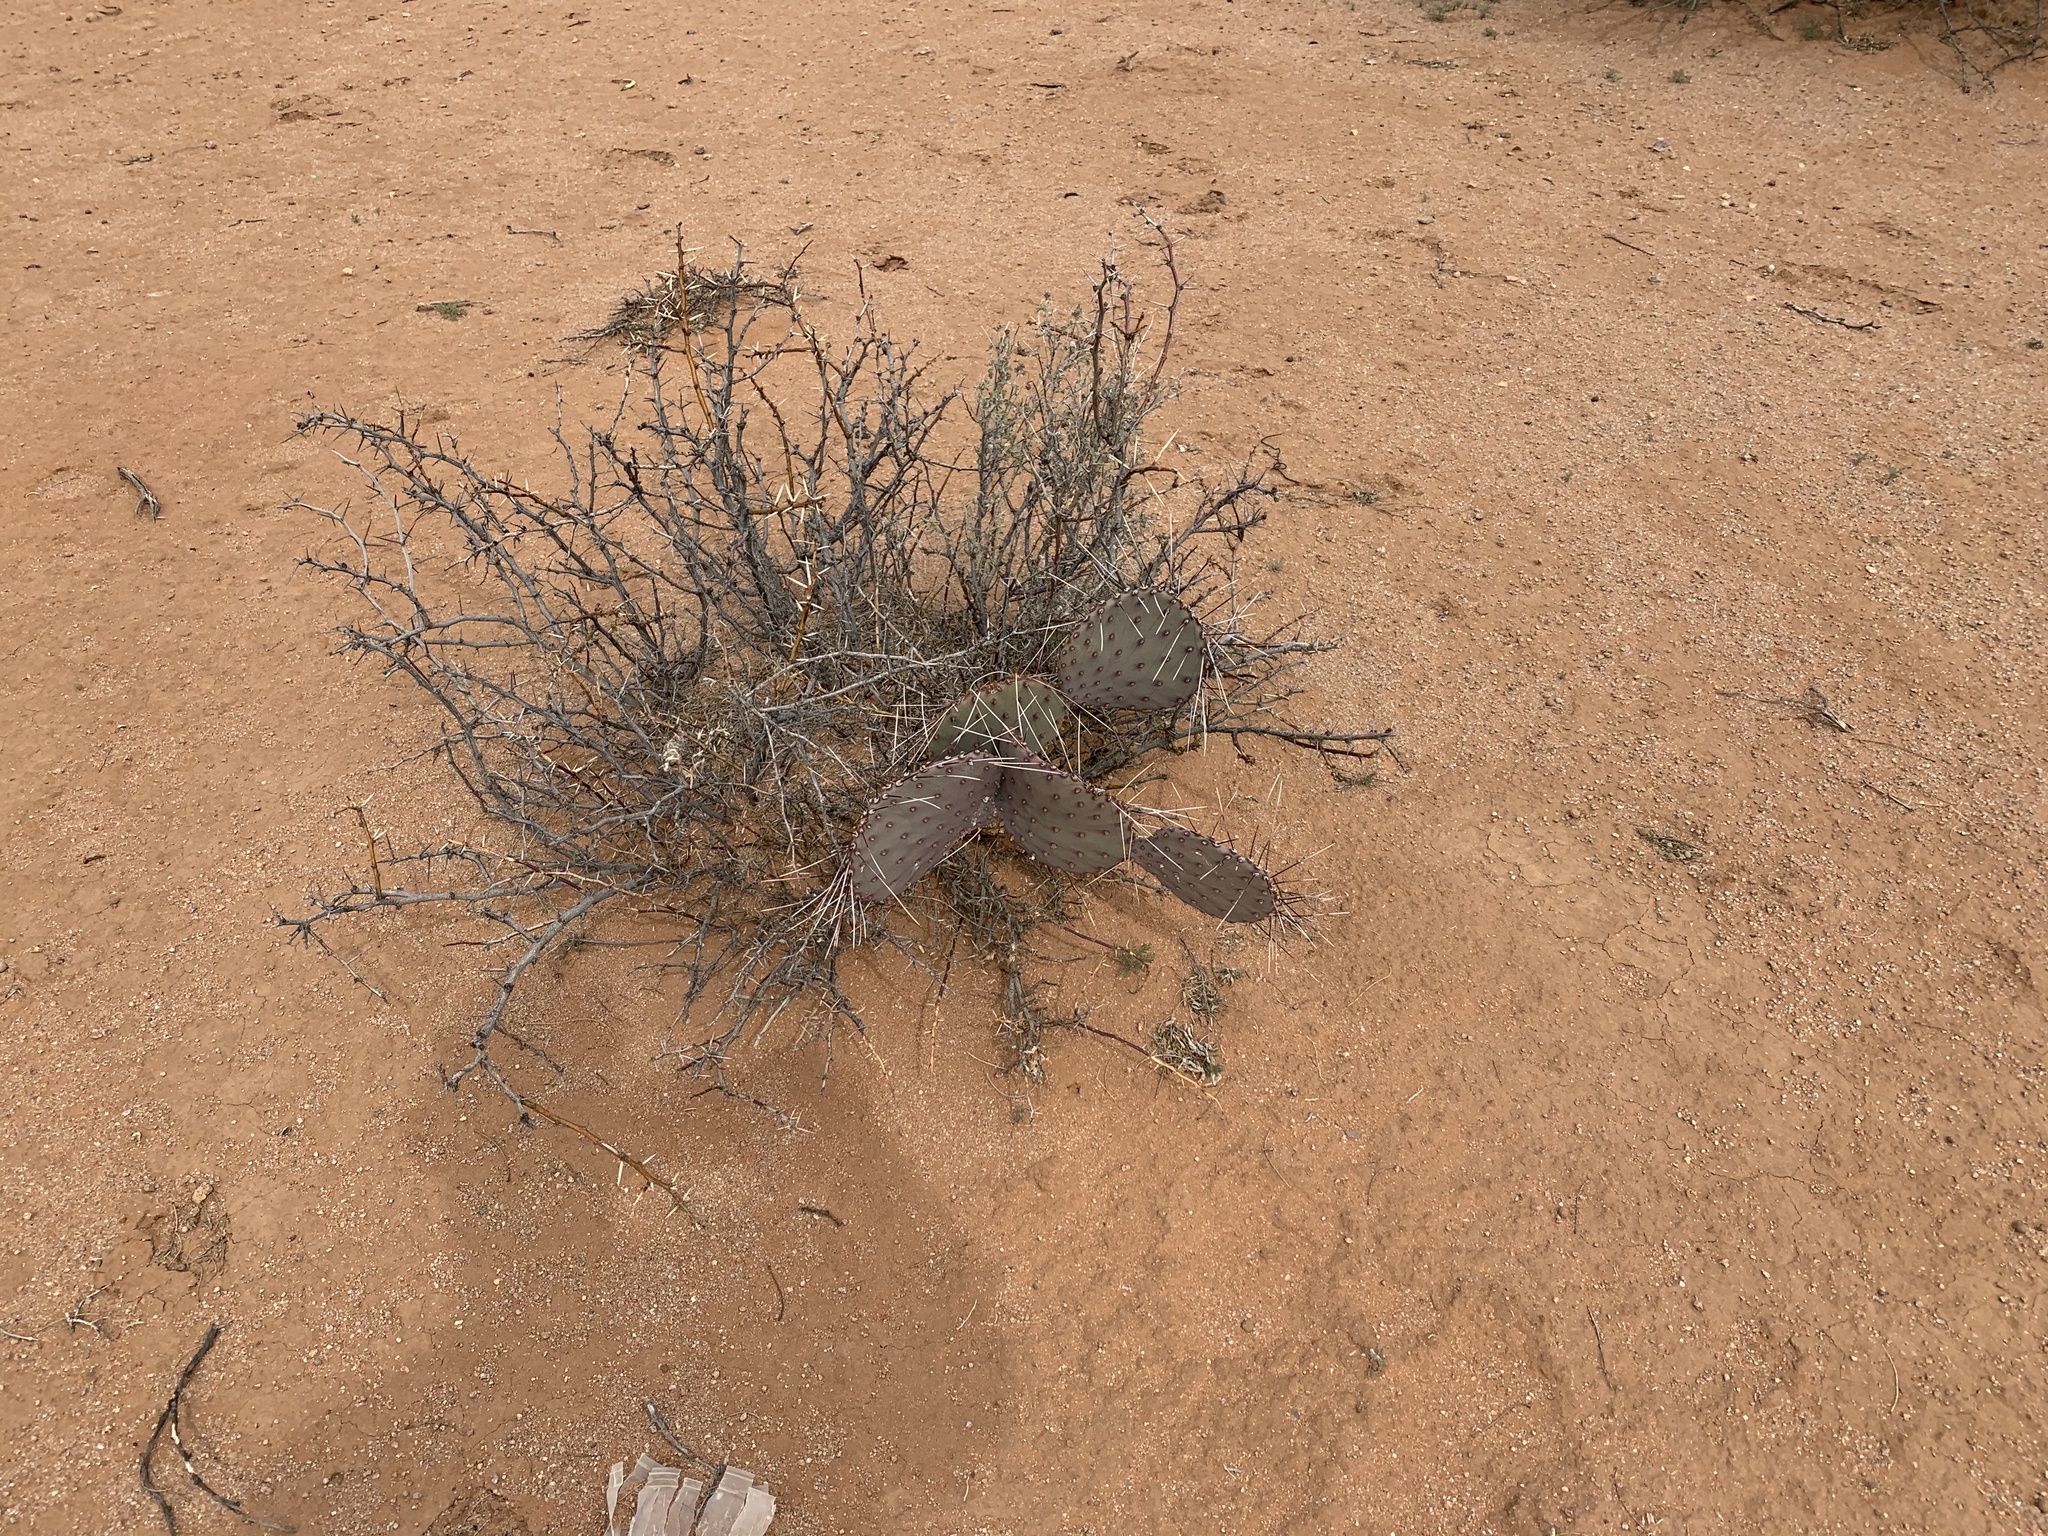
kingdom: Plantae
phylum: Tracheophyta
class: Magnoliopsida
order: Caryophyllales
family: Cactaceae
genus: Opuntia
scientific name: Opuntia macrocentra
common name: Purple prickly-pear
